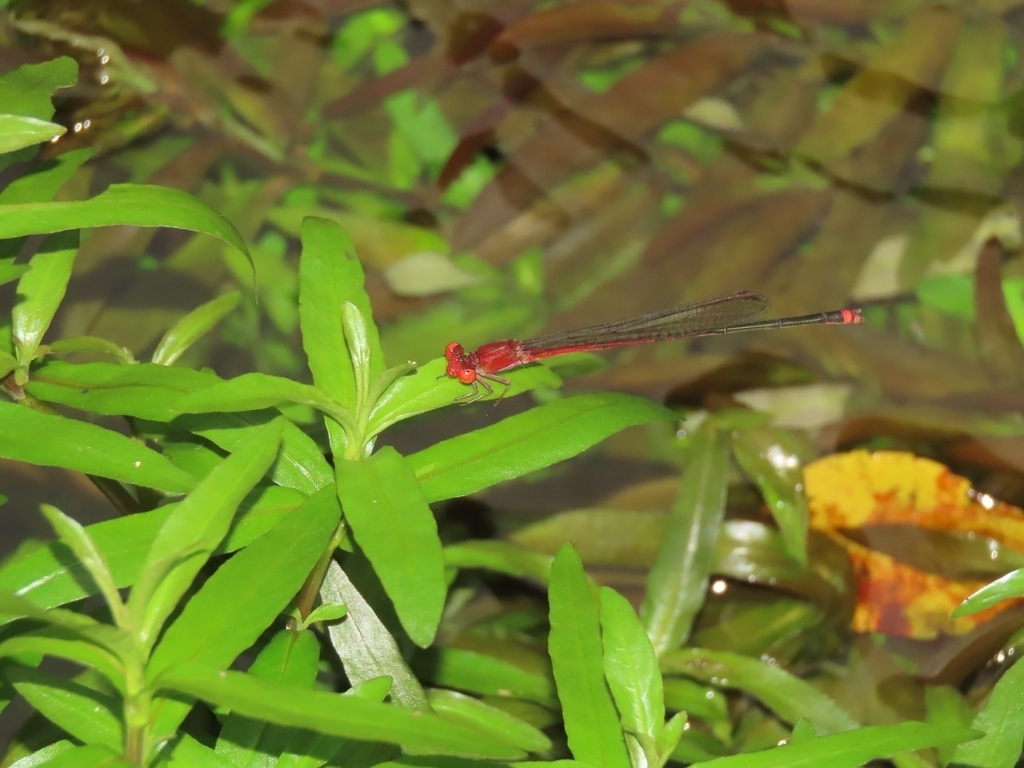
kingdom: Animalia
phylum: Arthropoda
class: Insecta
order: Odonata
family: Coenagrionidae
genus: Pseudagrion
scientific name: Pseudagrion pilidorsum
